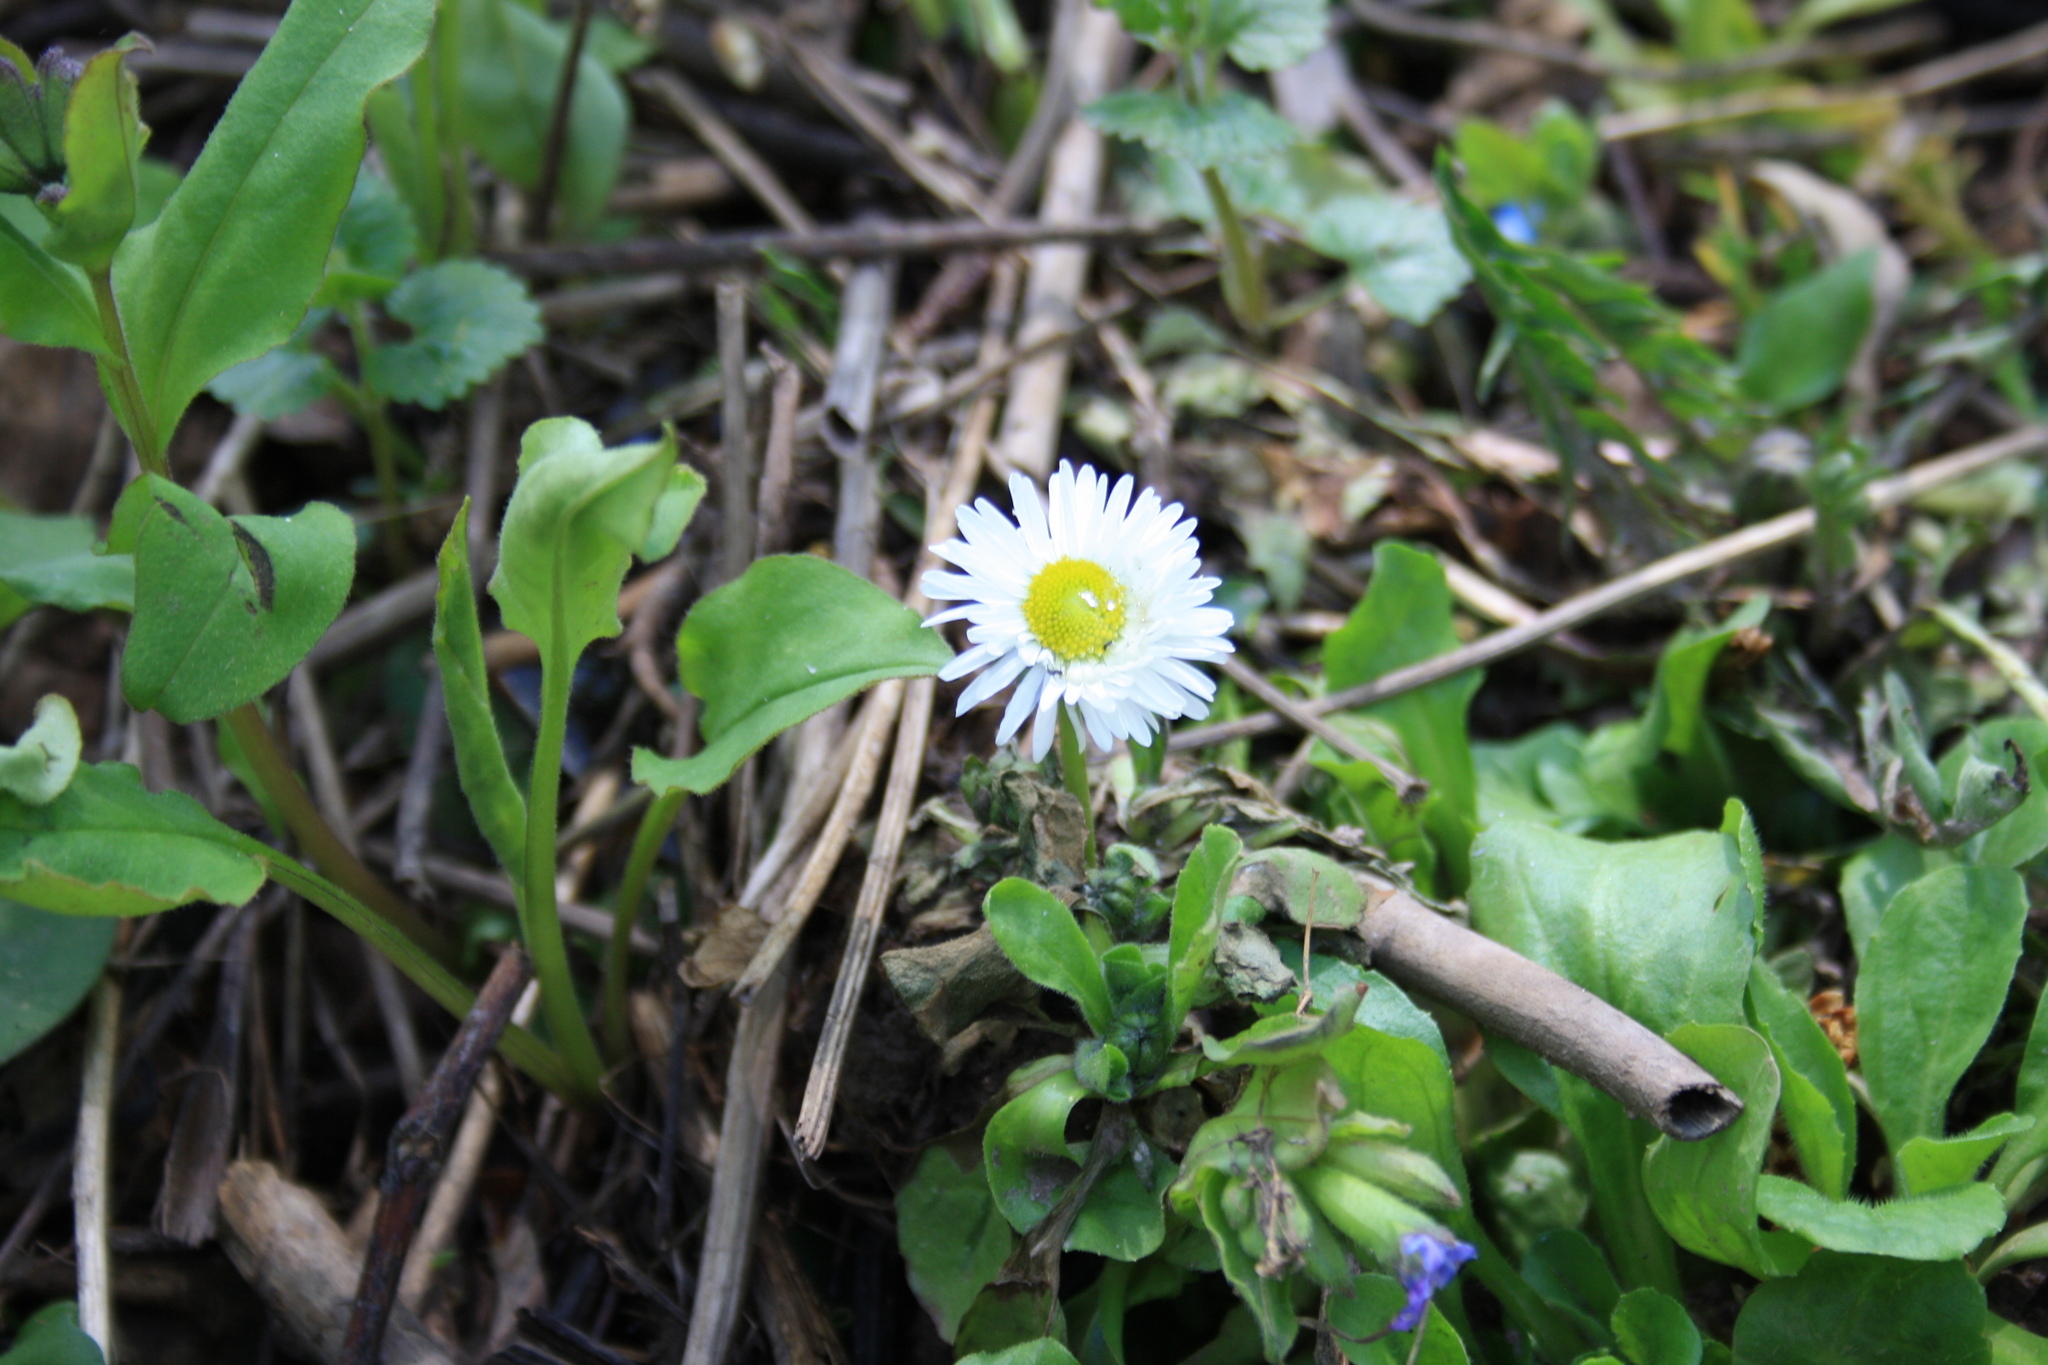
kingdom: Plantae
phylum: Tracheophyta
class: Magnoliopsida
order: Asterales
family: Asteraceae
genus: Bellis
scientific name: Bellis perennis
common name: Lawndaisy
